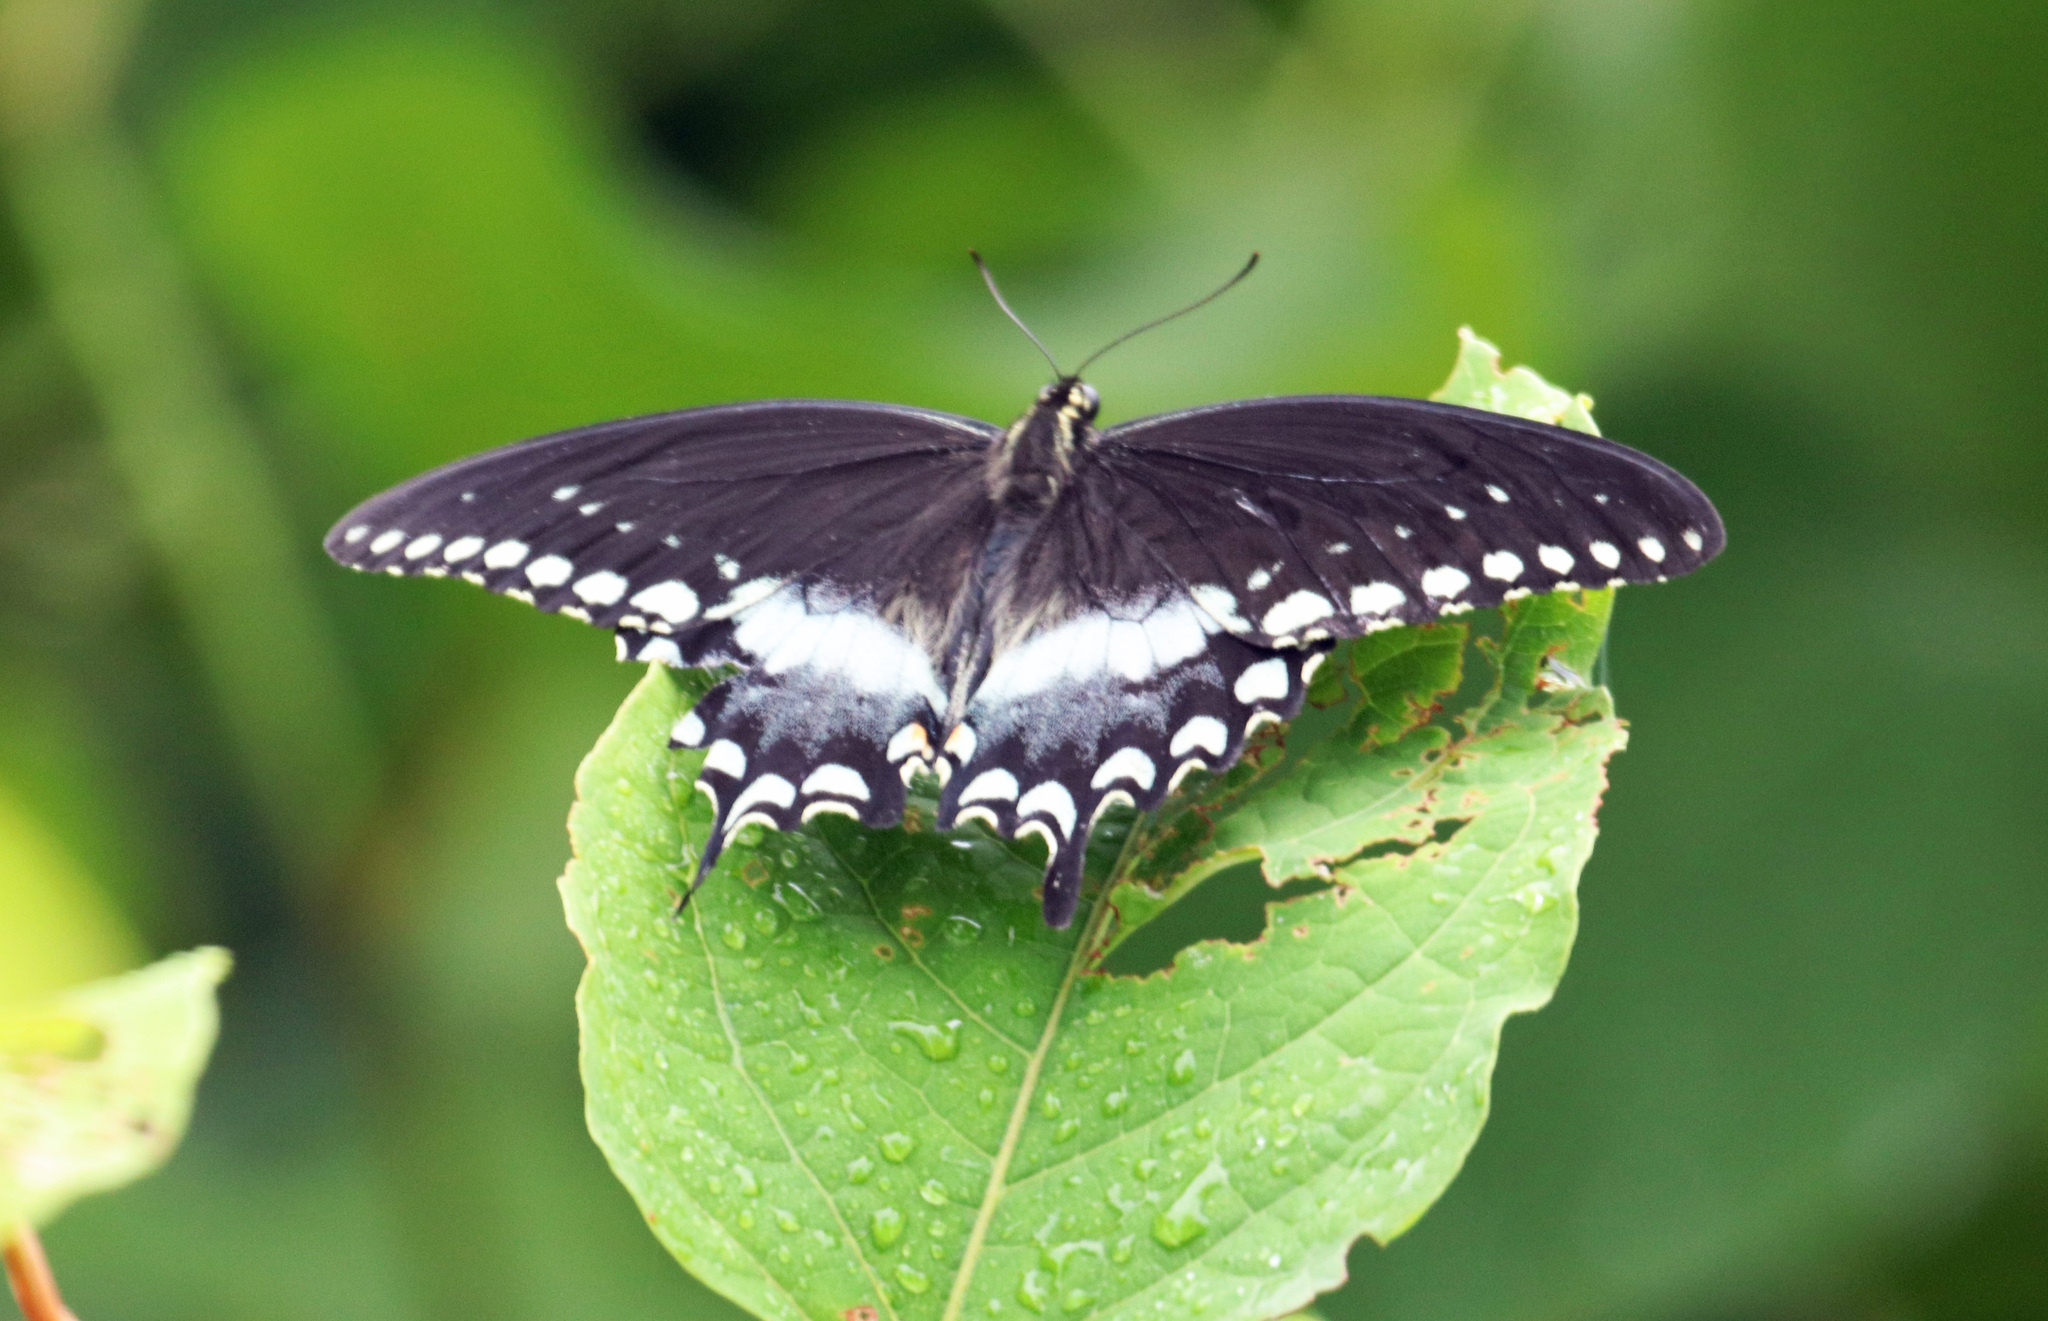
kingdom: Animalia
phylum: Arthropoda
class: Insecta
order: Lepidoptera
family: Papilionidae
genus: Papilio
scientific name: Papilio troilus
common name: Spicebush swallowtail
